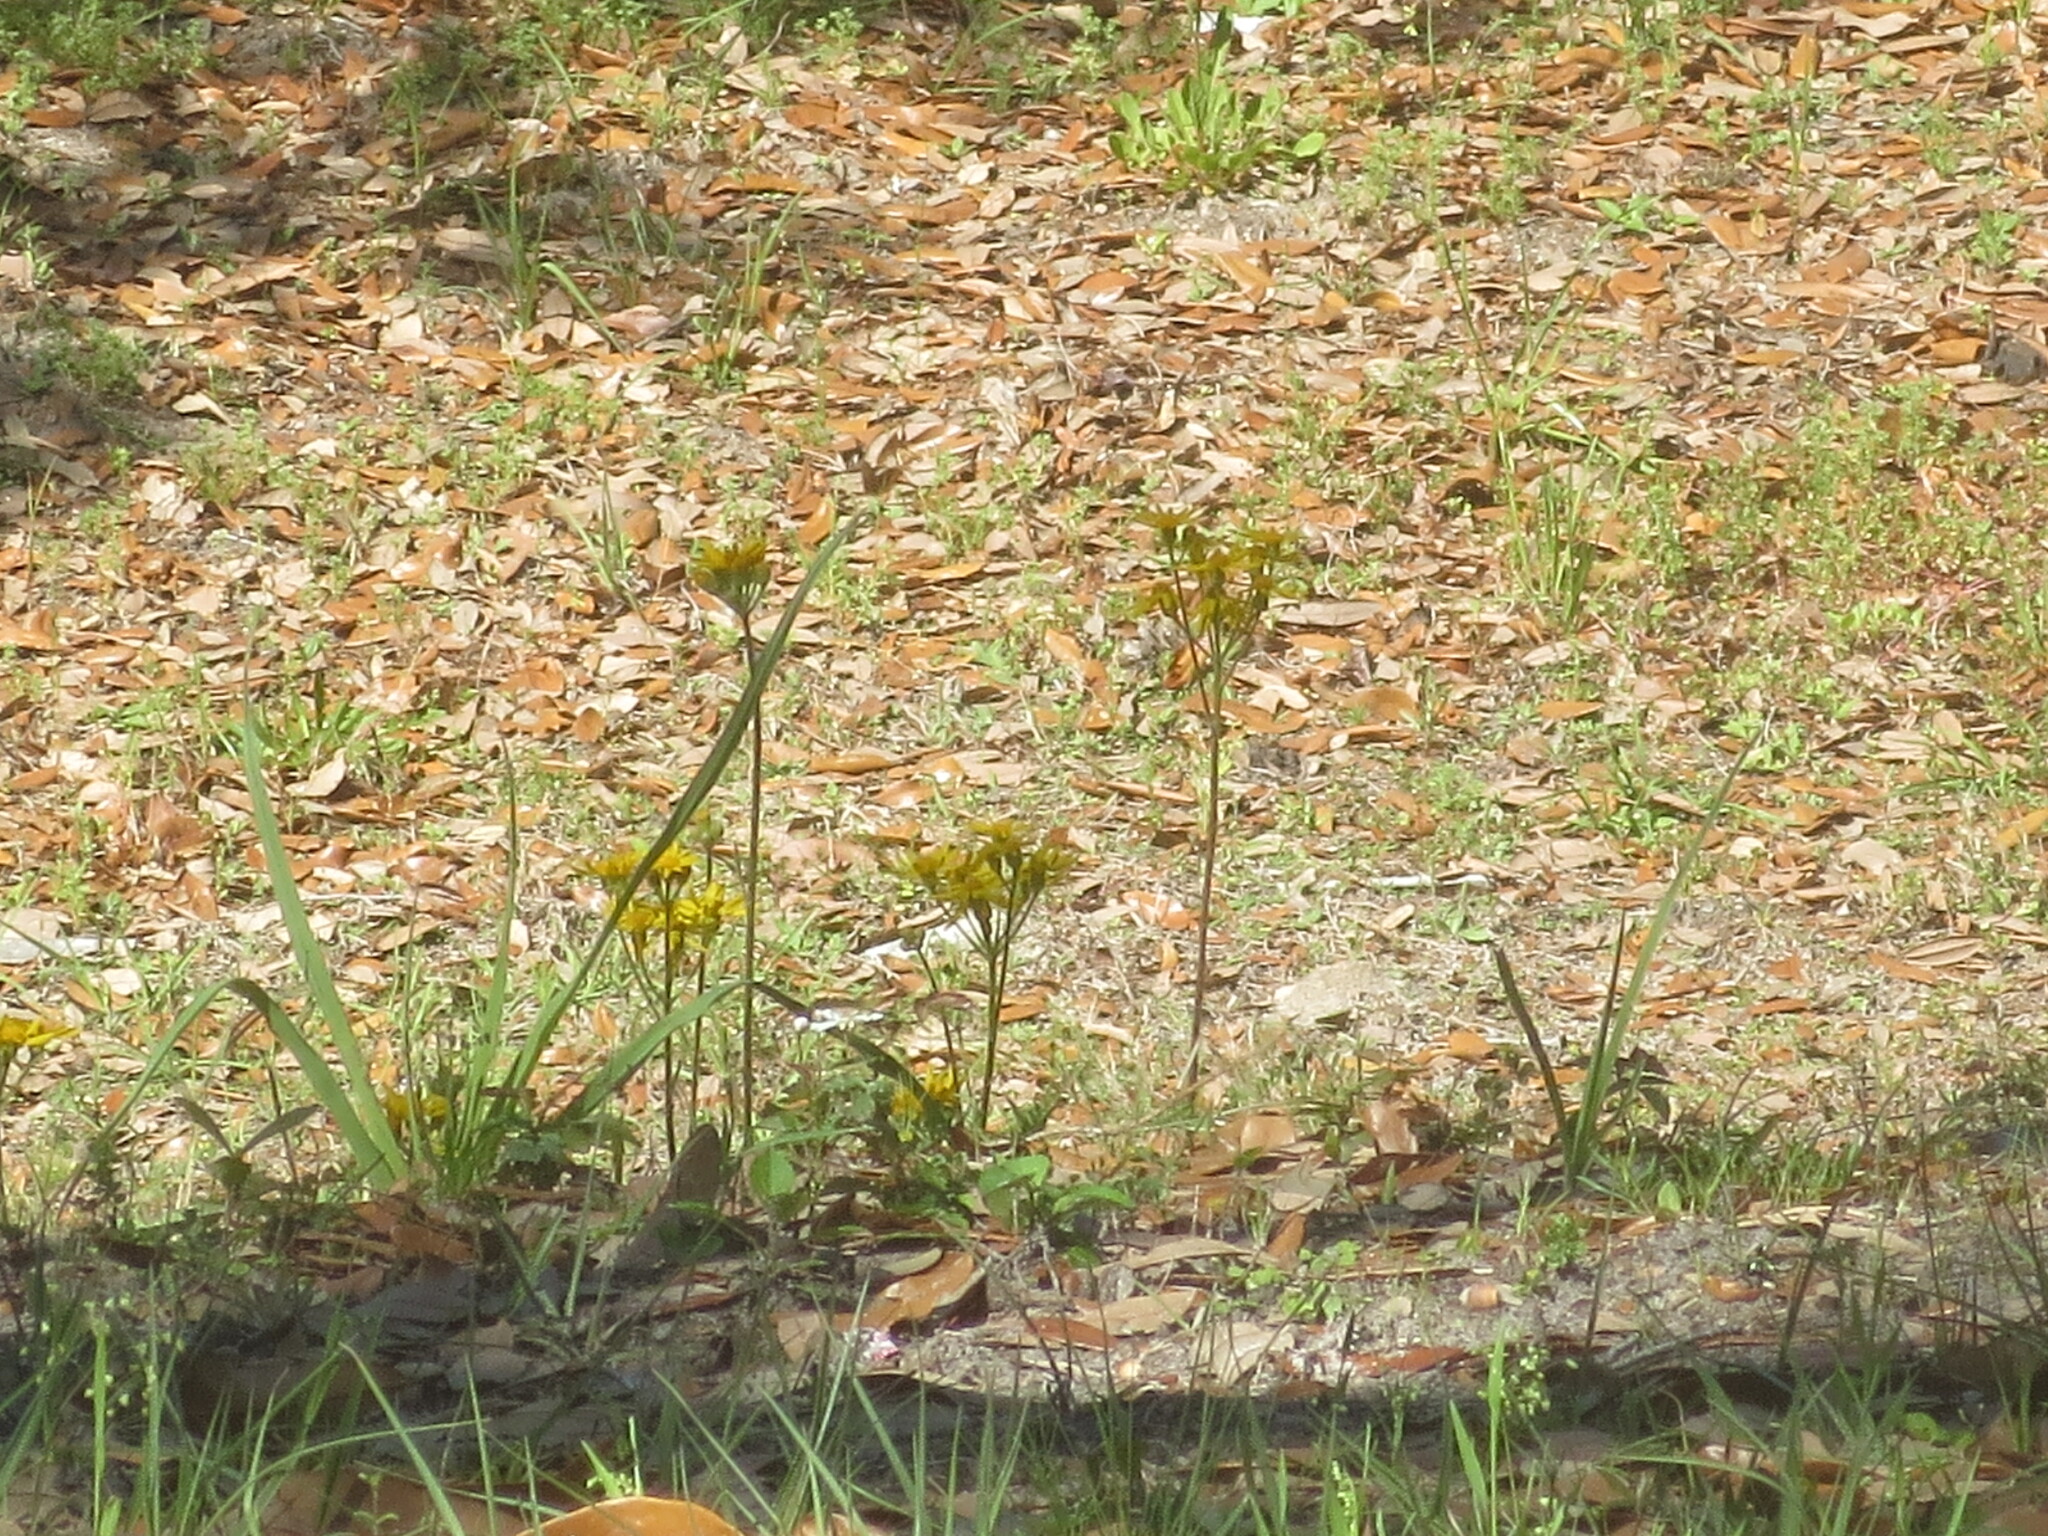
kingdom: Plantae
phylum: Tracheophyta
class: Magnoliopsida
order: Asterales
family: Asteraceae
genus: Packera
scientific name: Packera dubia
